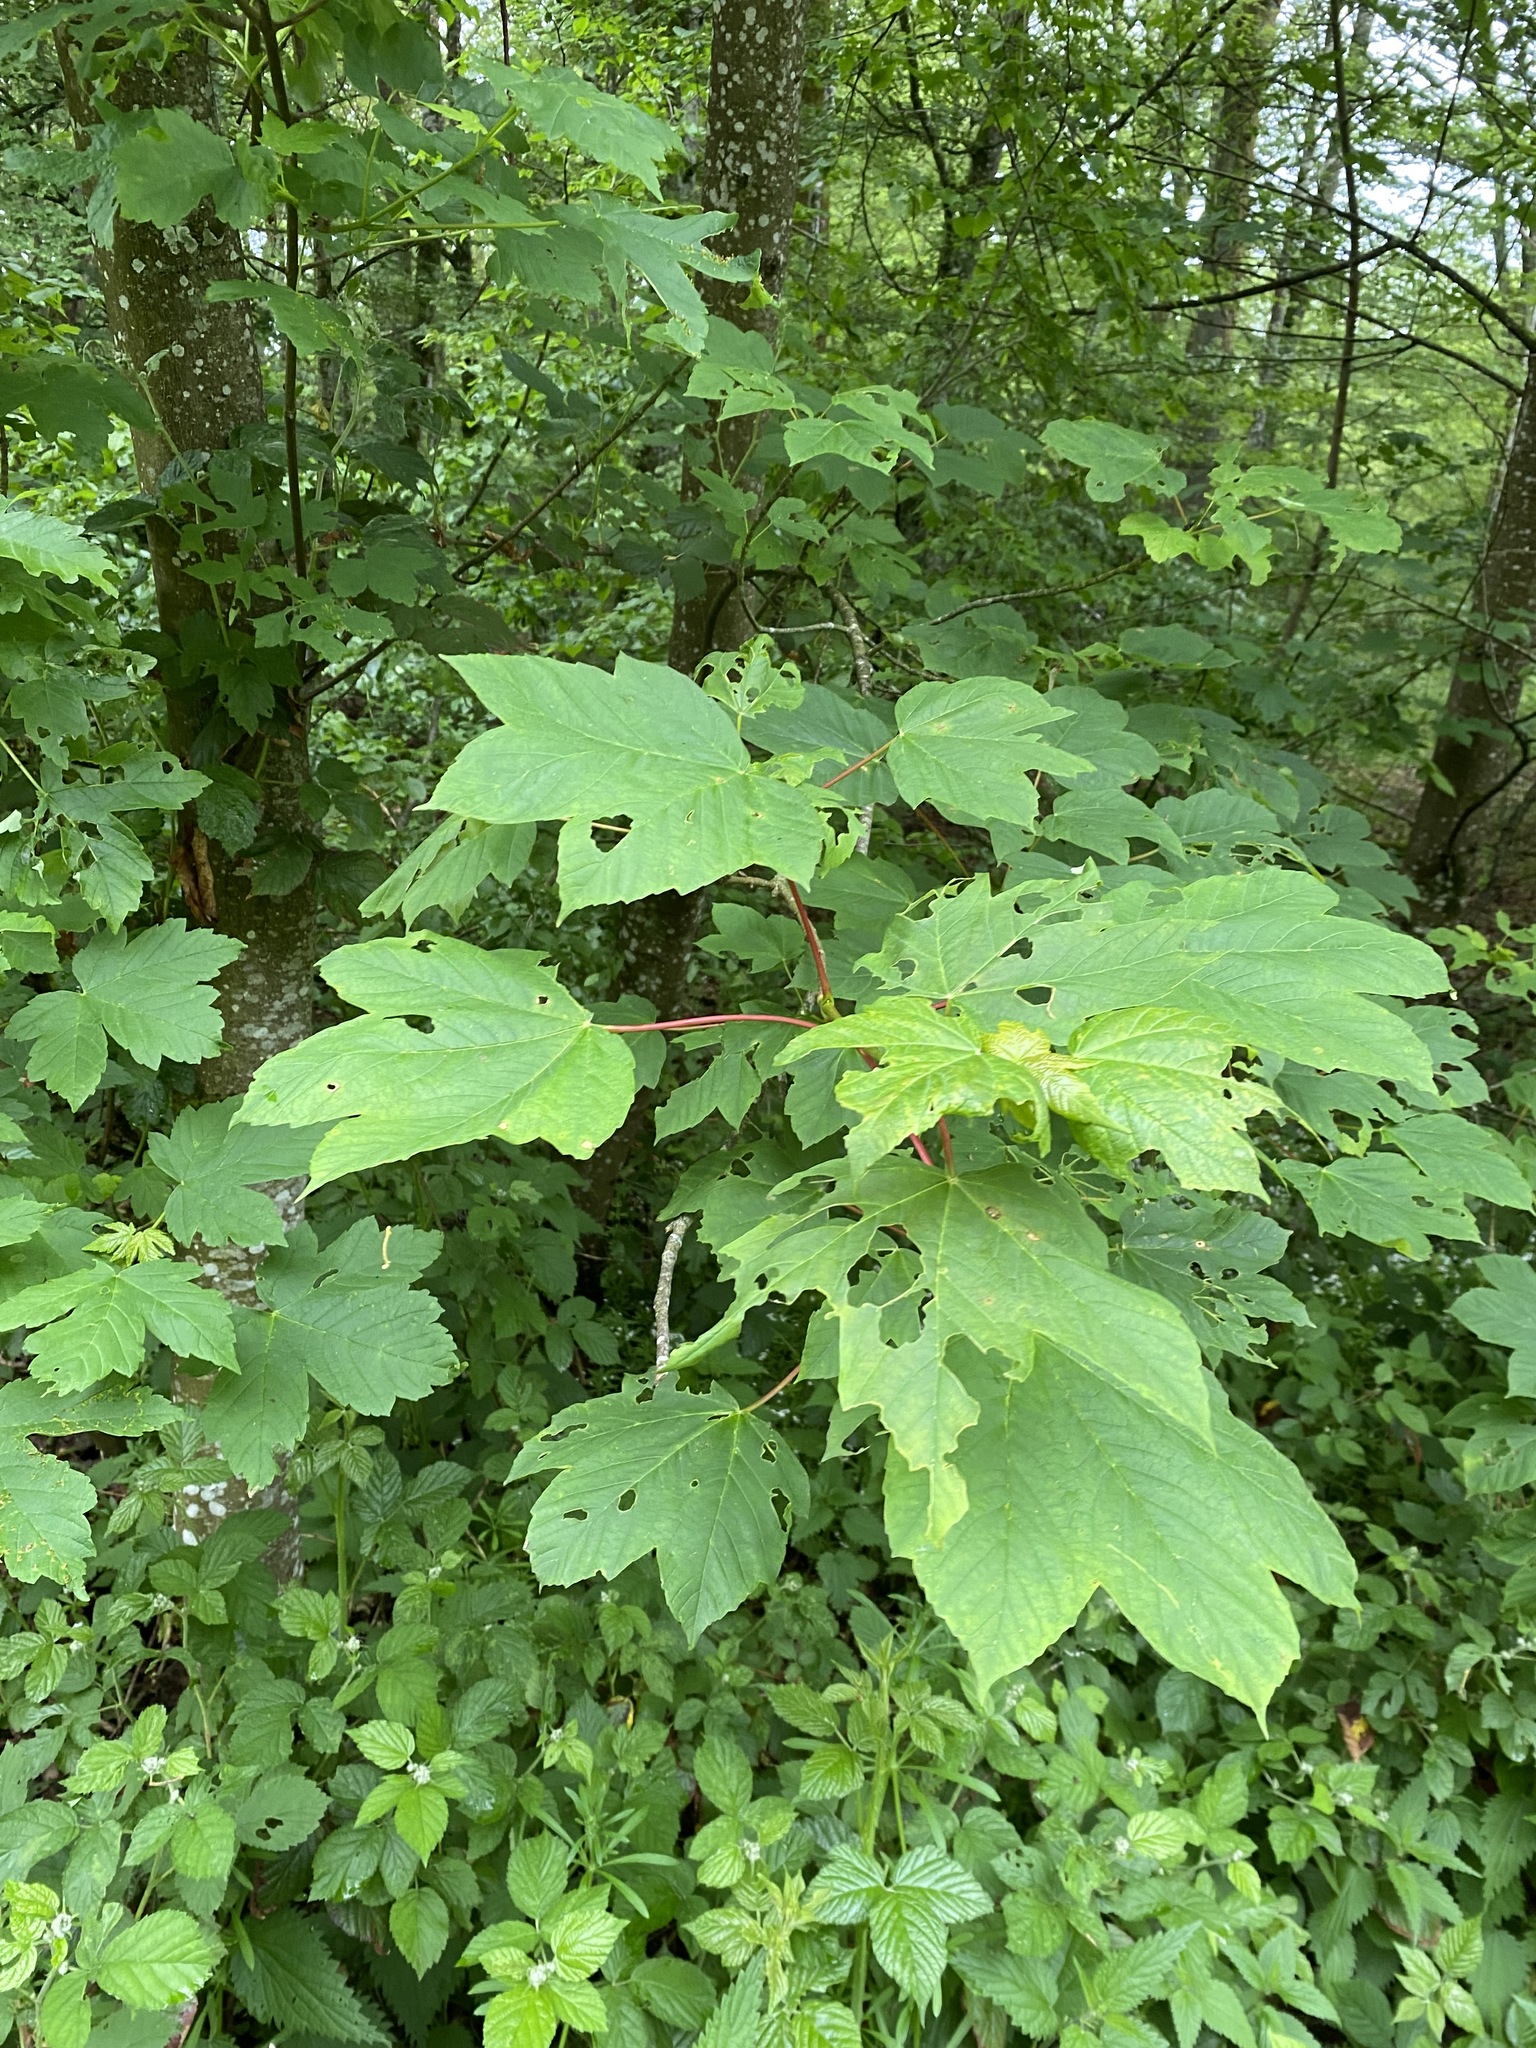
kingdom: Plantae
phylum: Tracheophyta
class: Magnoliopsida
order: Sapindales
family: Sapindaceae
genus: Acer
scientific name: Acer pseudoplatanus
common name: Sycamore
